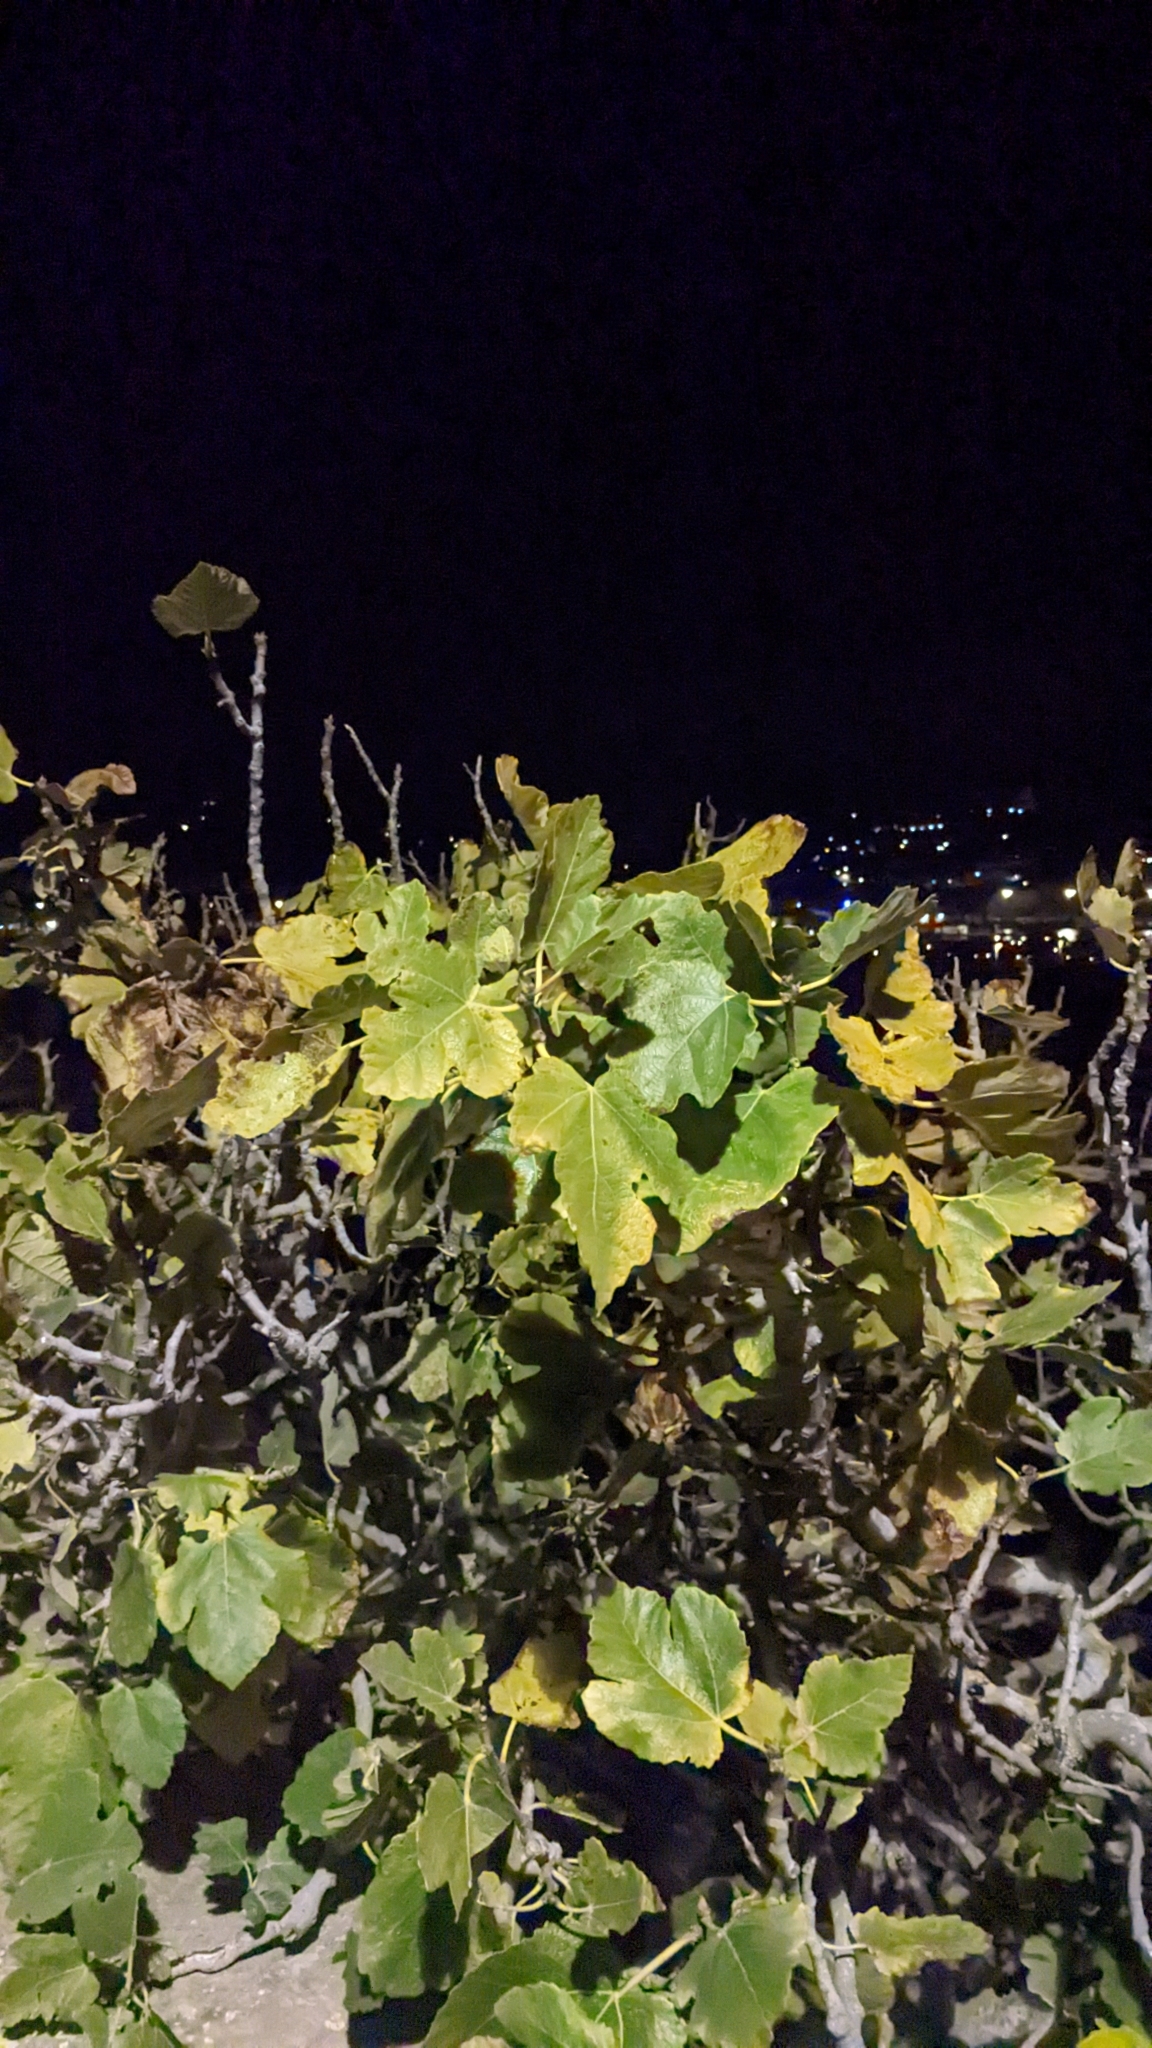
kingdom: Plantae
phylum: Tracheophyta
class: Magnoliopsida
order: Rosales
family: Moraceae
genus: Ficus
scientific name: Ficus carica
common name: Fig
